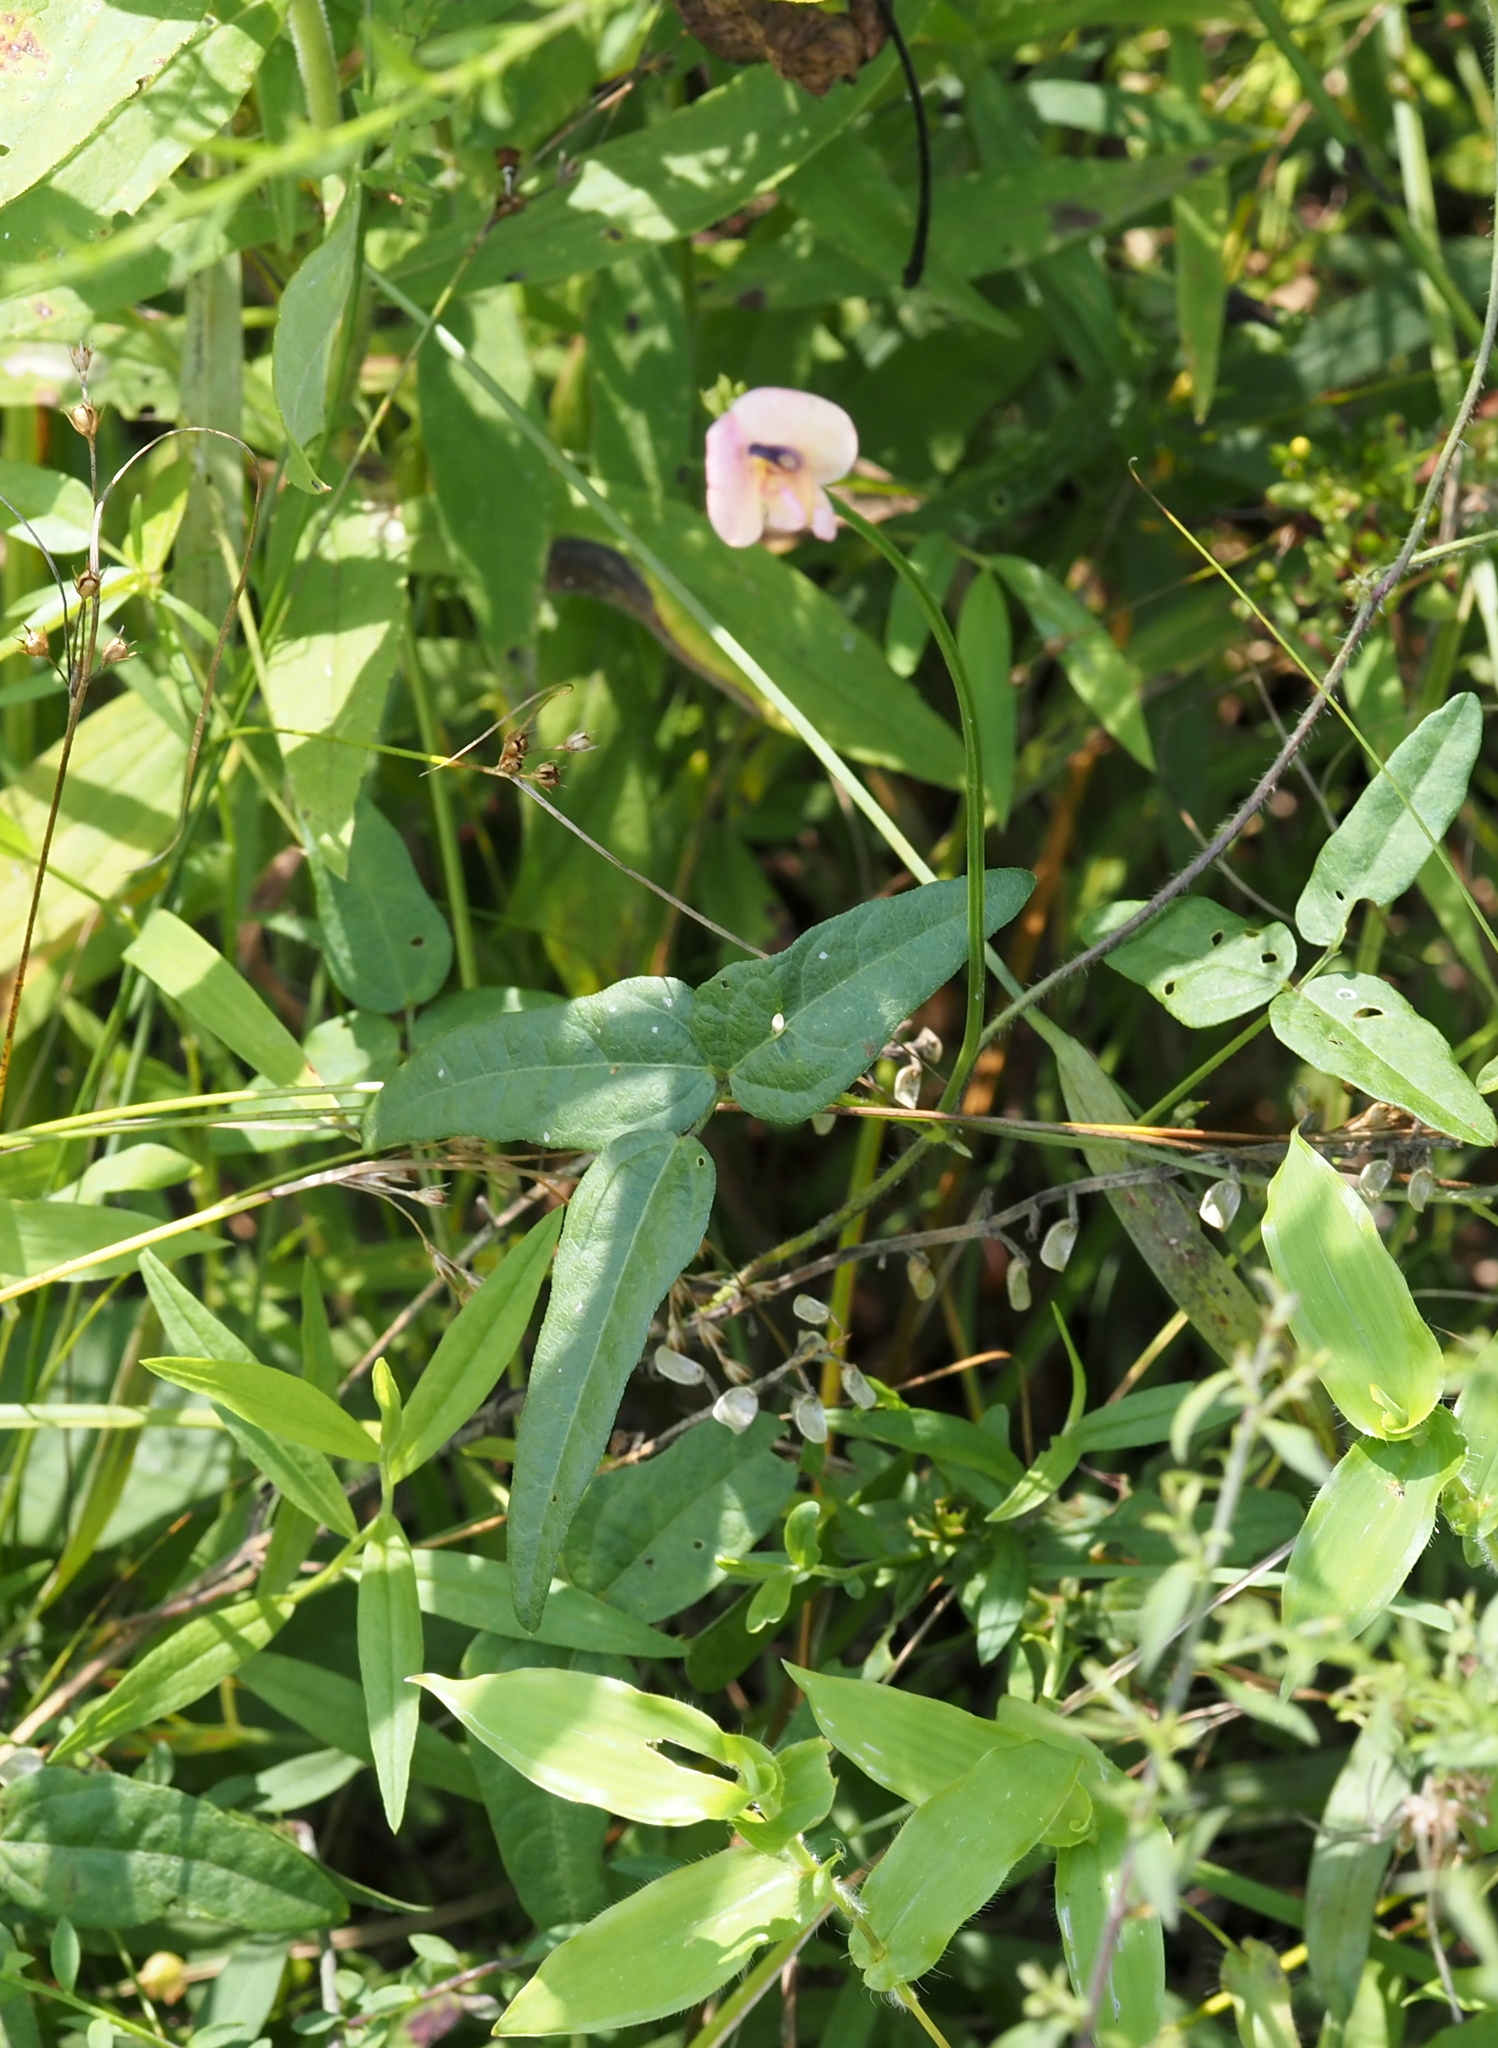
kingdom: Plantae
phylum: Tracheophyta
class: Magnoliopsida
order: Fabales
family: Fabaceae
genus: Strophostyles
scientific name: Strophostyles umbellata
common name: Perennial wild bean
